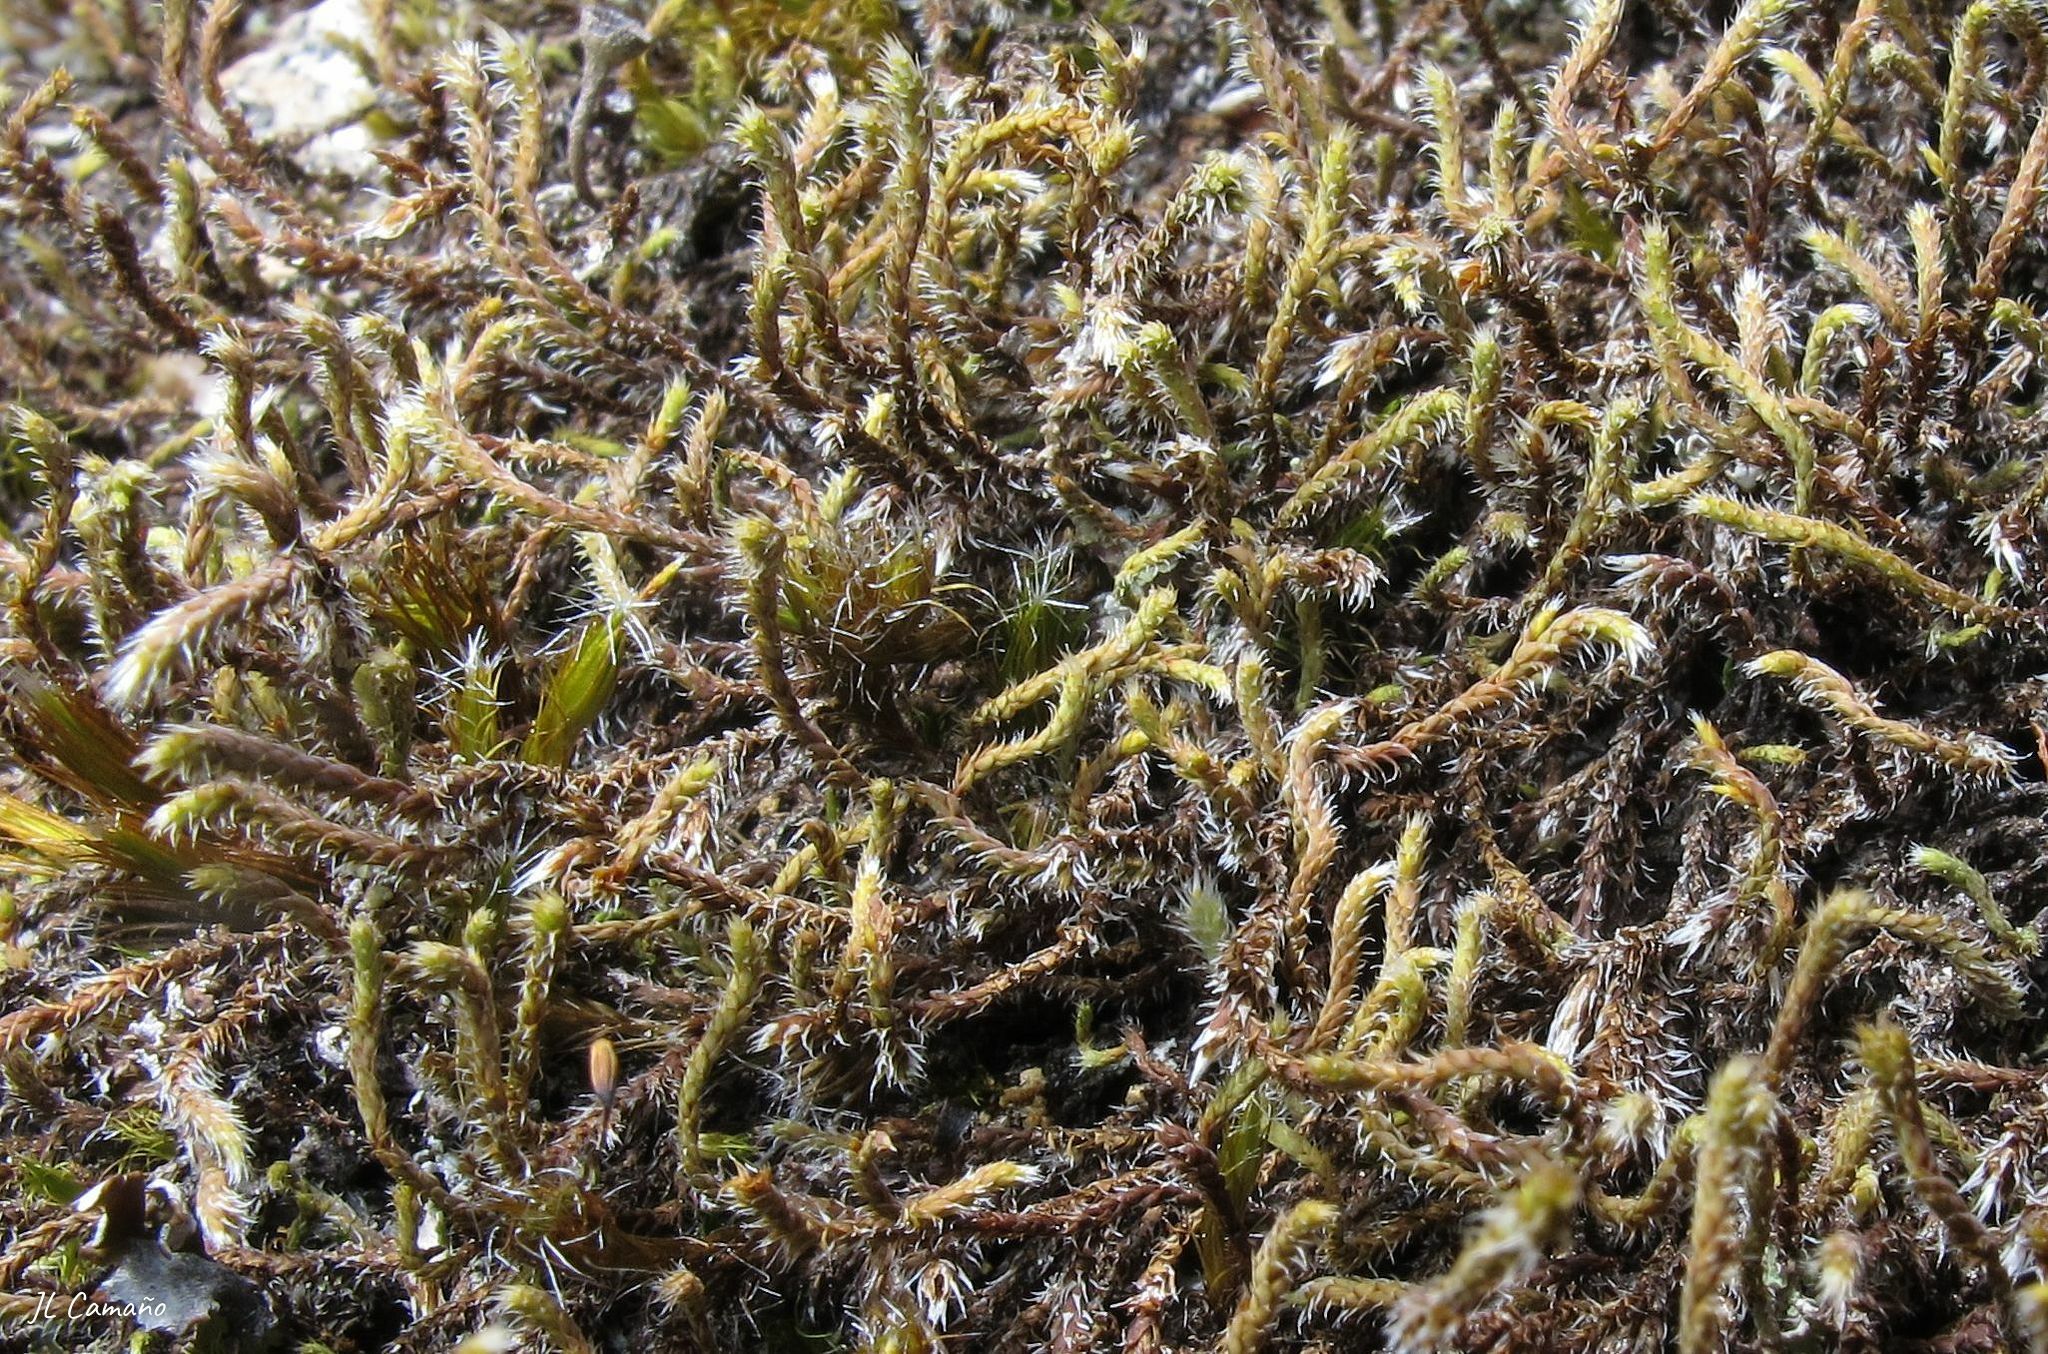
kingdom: Plantae
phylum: Bryophyta
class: Bryopsida
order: Hedwigiales
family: Hedwigiaceae
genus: Hedwigia
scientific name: Hedwigia stellata
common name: Starry hoar-moss
